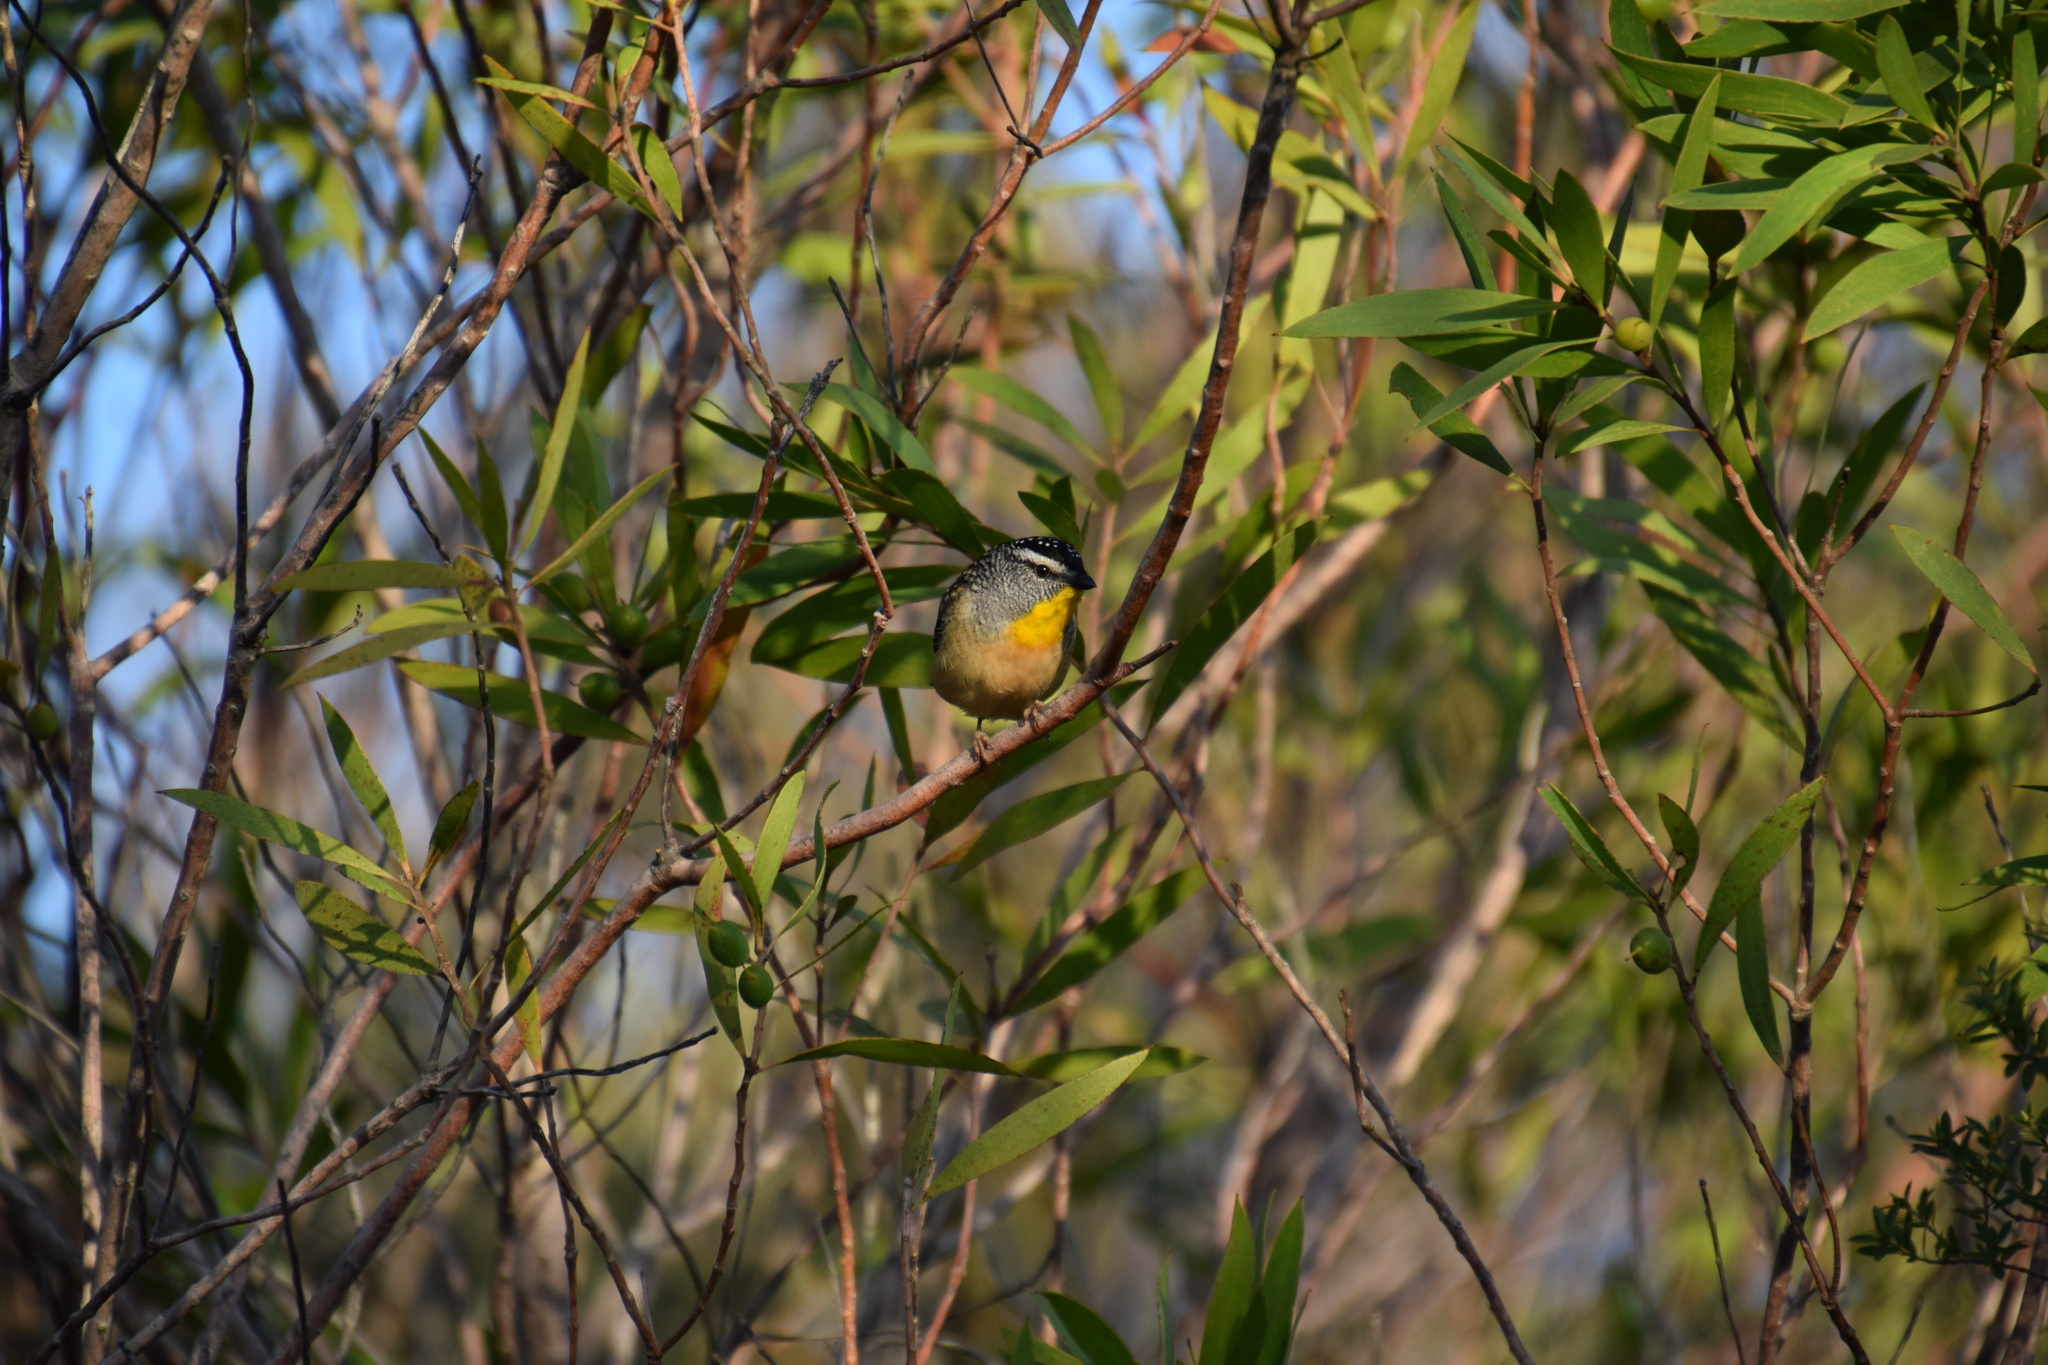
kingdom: Animalia
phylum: Chordata
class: Aves
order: Passeriformes
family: Pardalotidae
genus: Pardalotus
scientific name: Pardalotus punctatus
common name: Spotted pardalote
